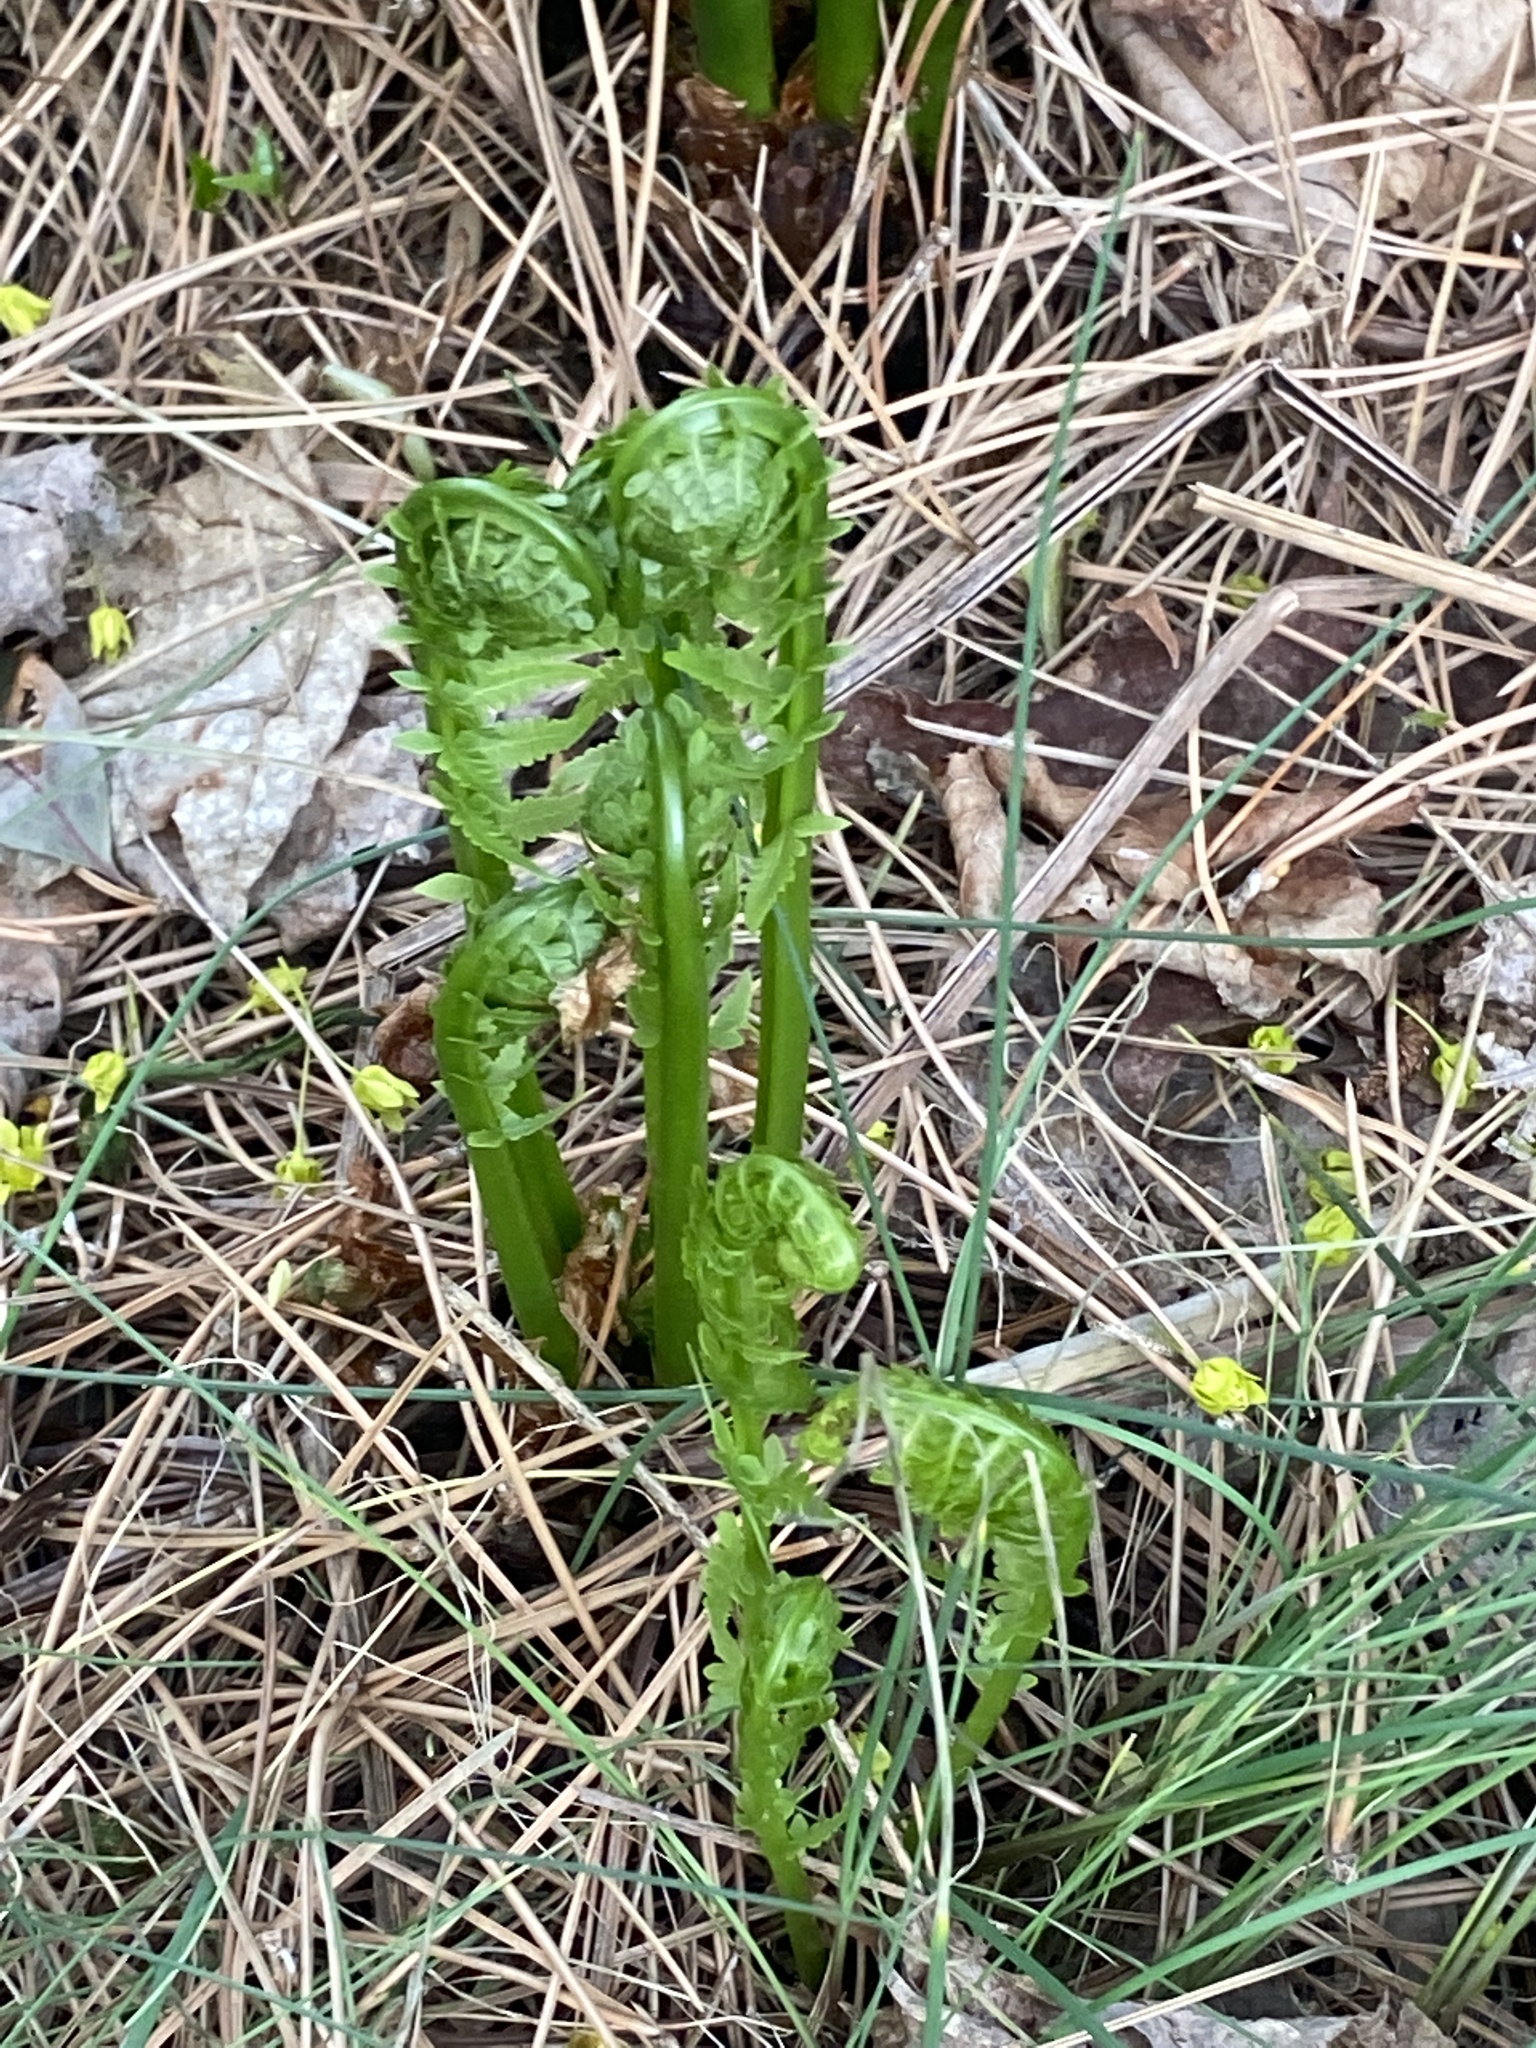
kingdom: Plantae
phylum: Tracheophyta
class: Polypodiopsida
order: Polypodiales
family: Onocleaceae
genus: Matteuccia
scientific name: Matteuccia struthiopteris
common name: Ostrich fern
